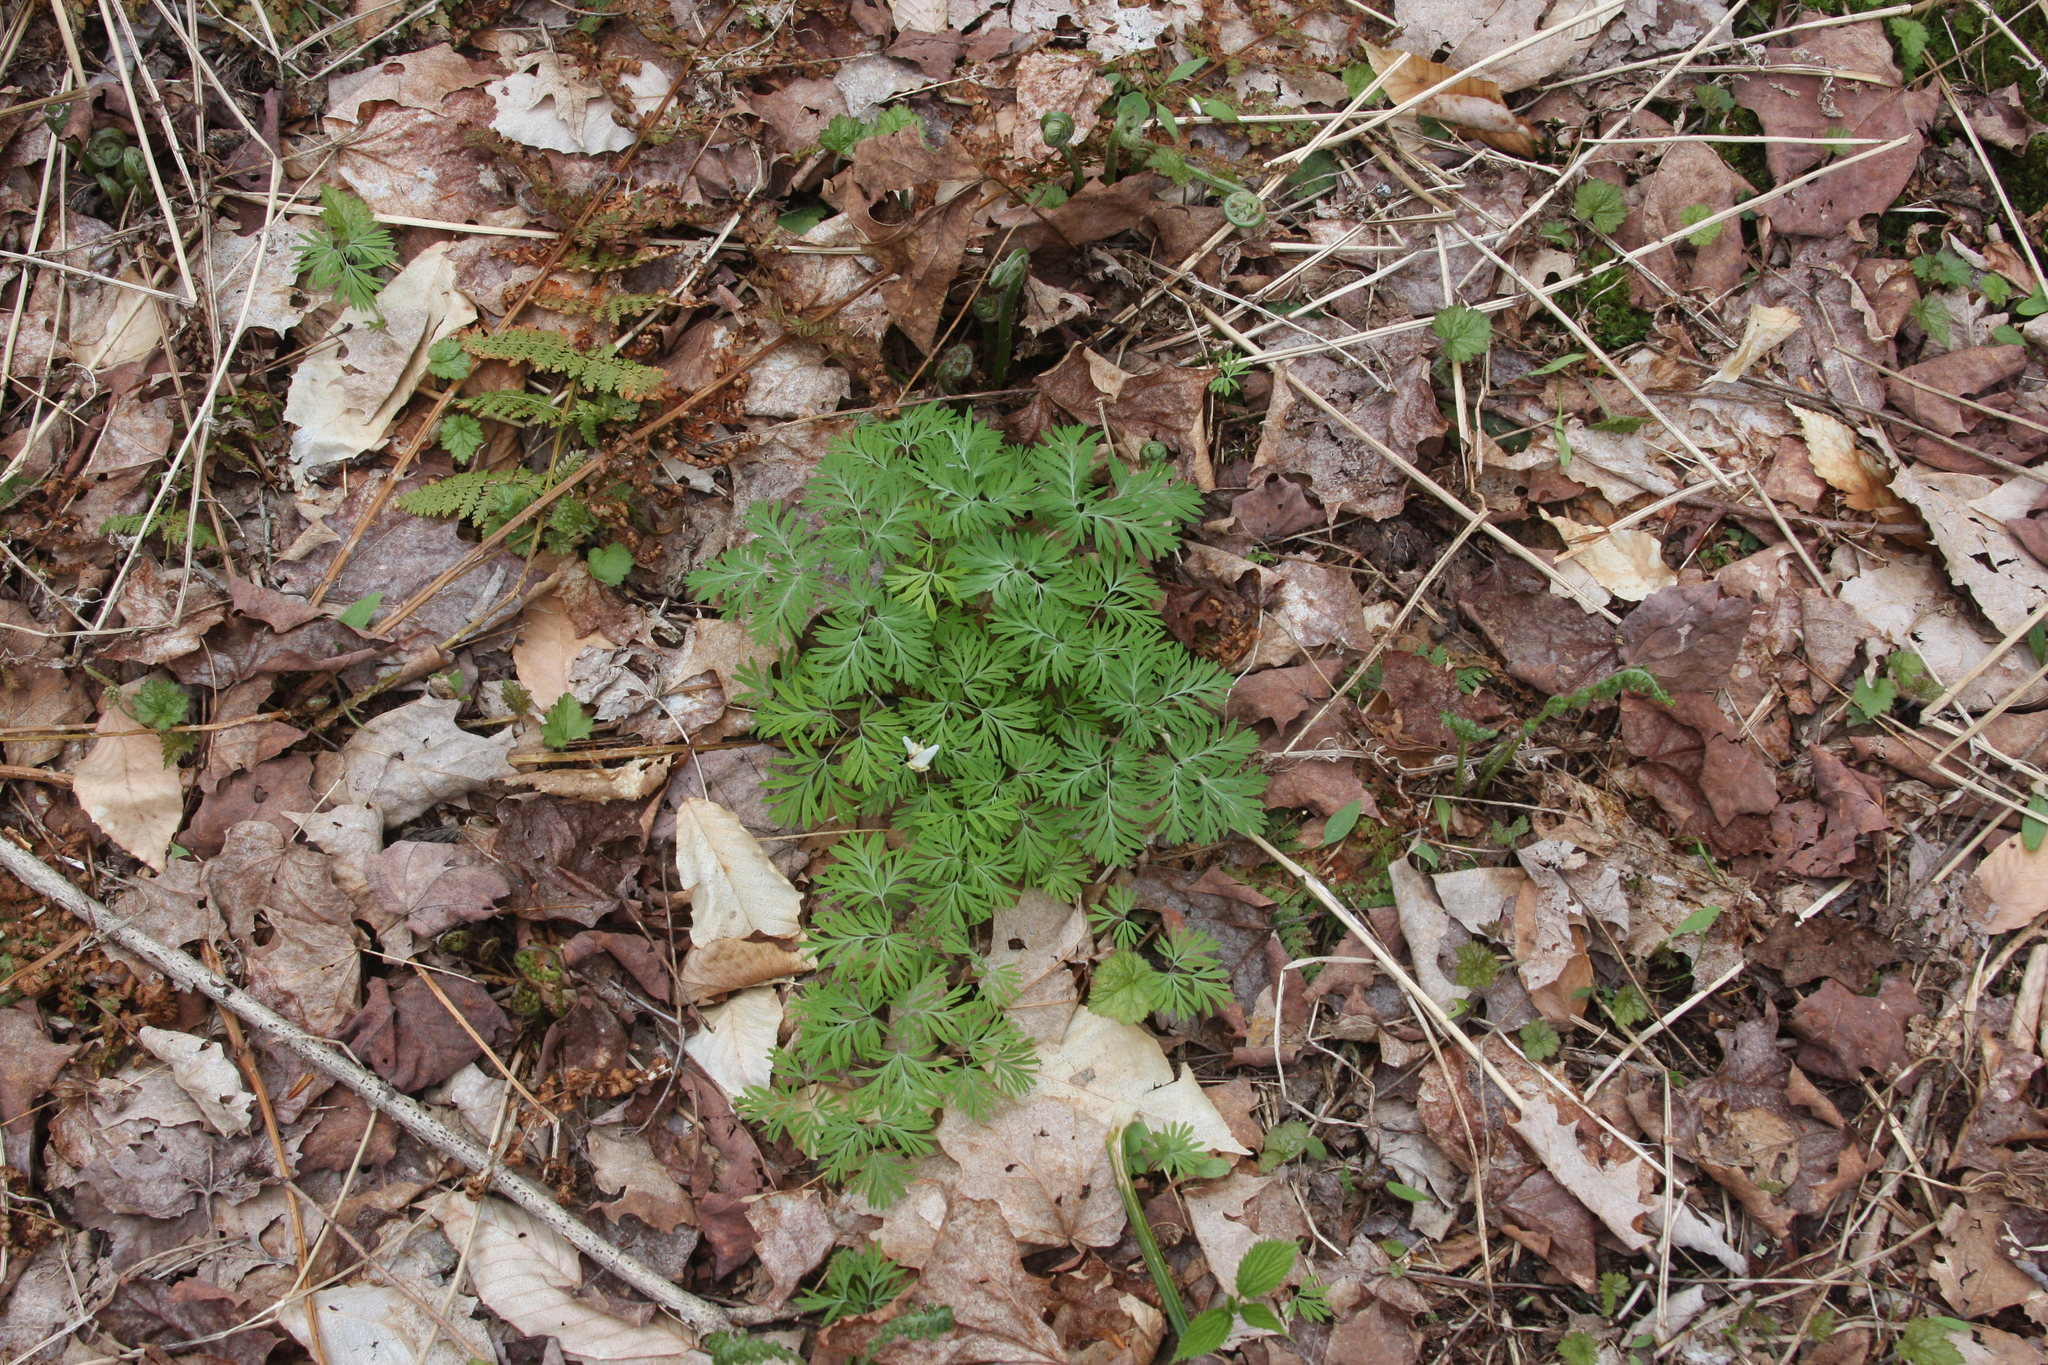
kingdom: Plantae
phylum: Tracheophyta
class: Magnoliopsida
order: Ranunculales
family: Papaveraceae
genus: Dicentra
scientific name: Dicentra cucullaria
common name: Dutchman's breeches
